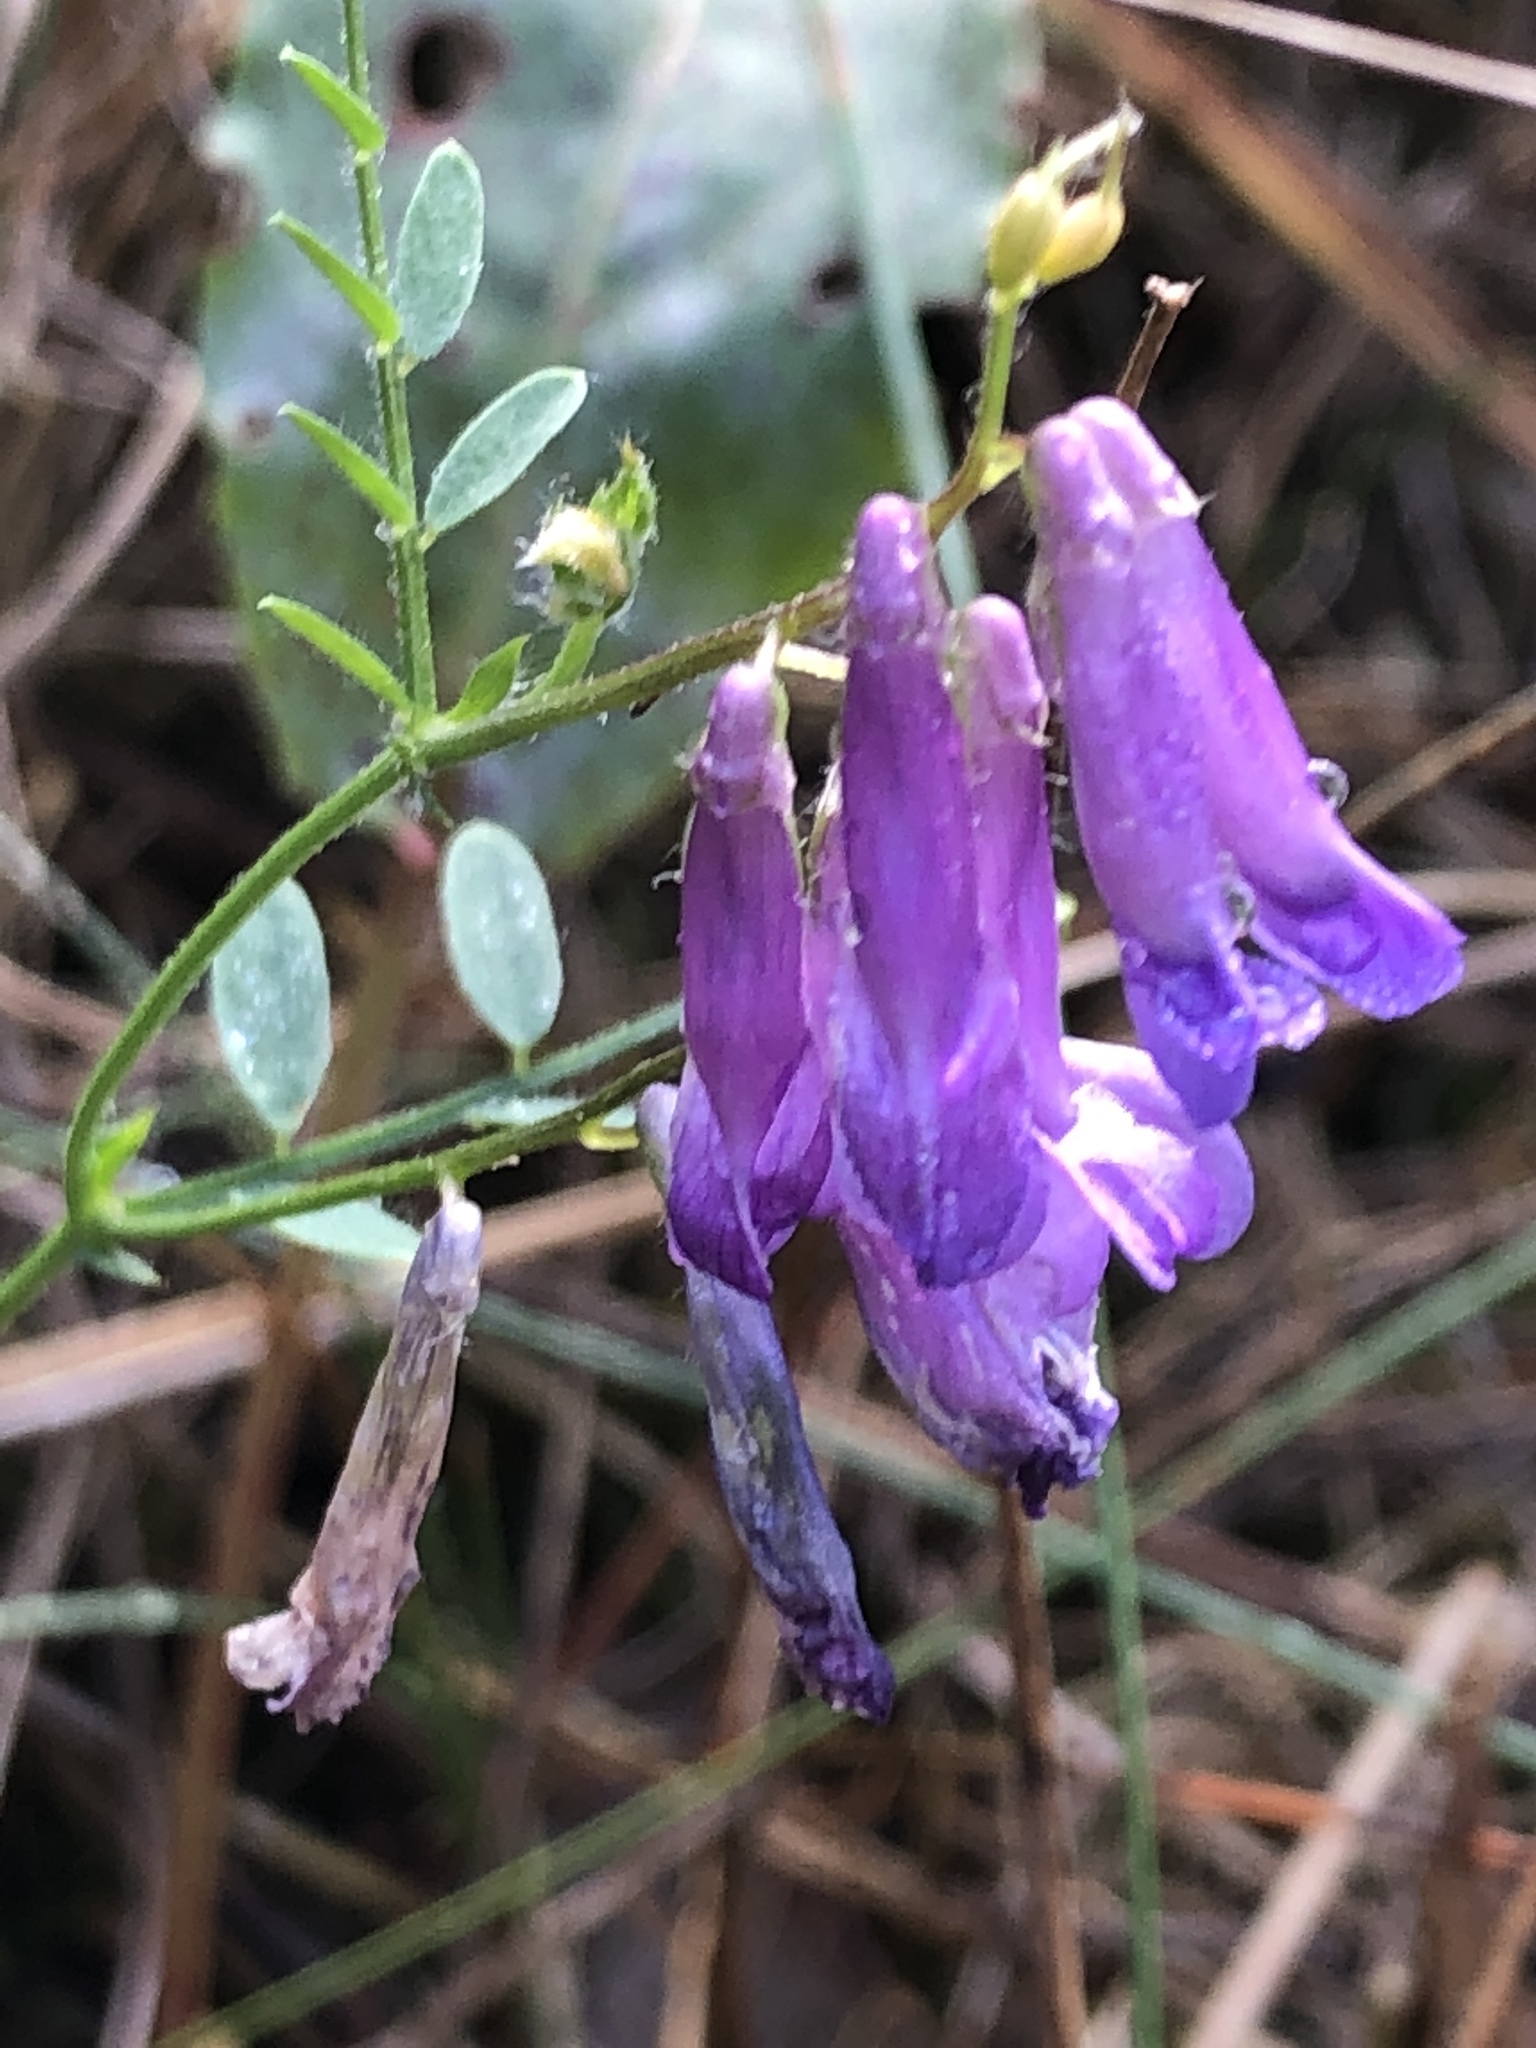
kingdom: Plantae
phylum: Tracheophyta
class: Magnoliopsida
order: Fabales
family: Fabaceae
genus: Vicia
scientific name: Vicia villosa
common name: Fodder vetch
